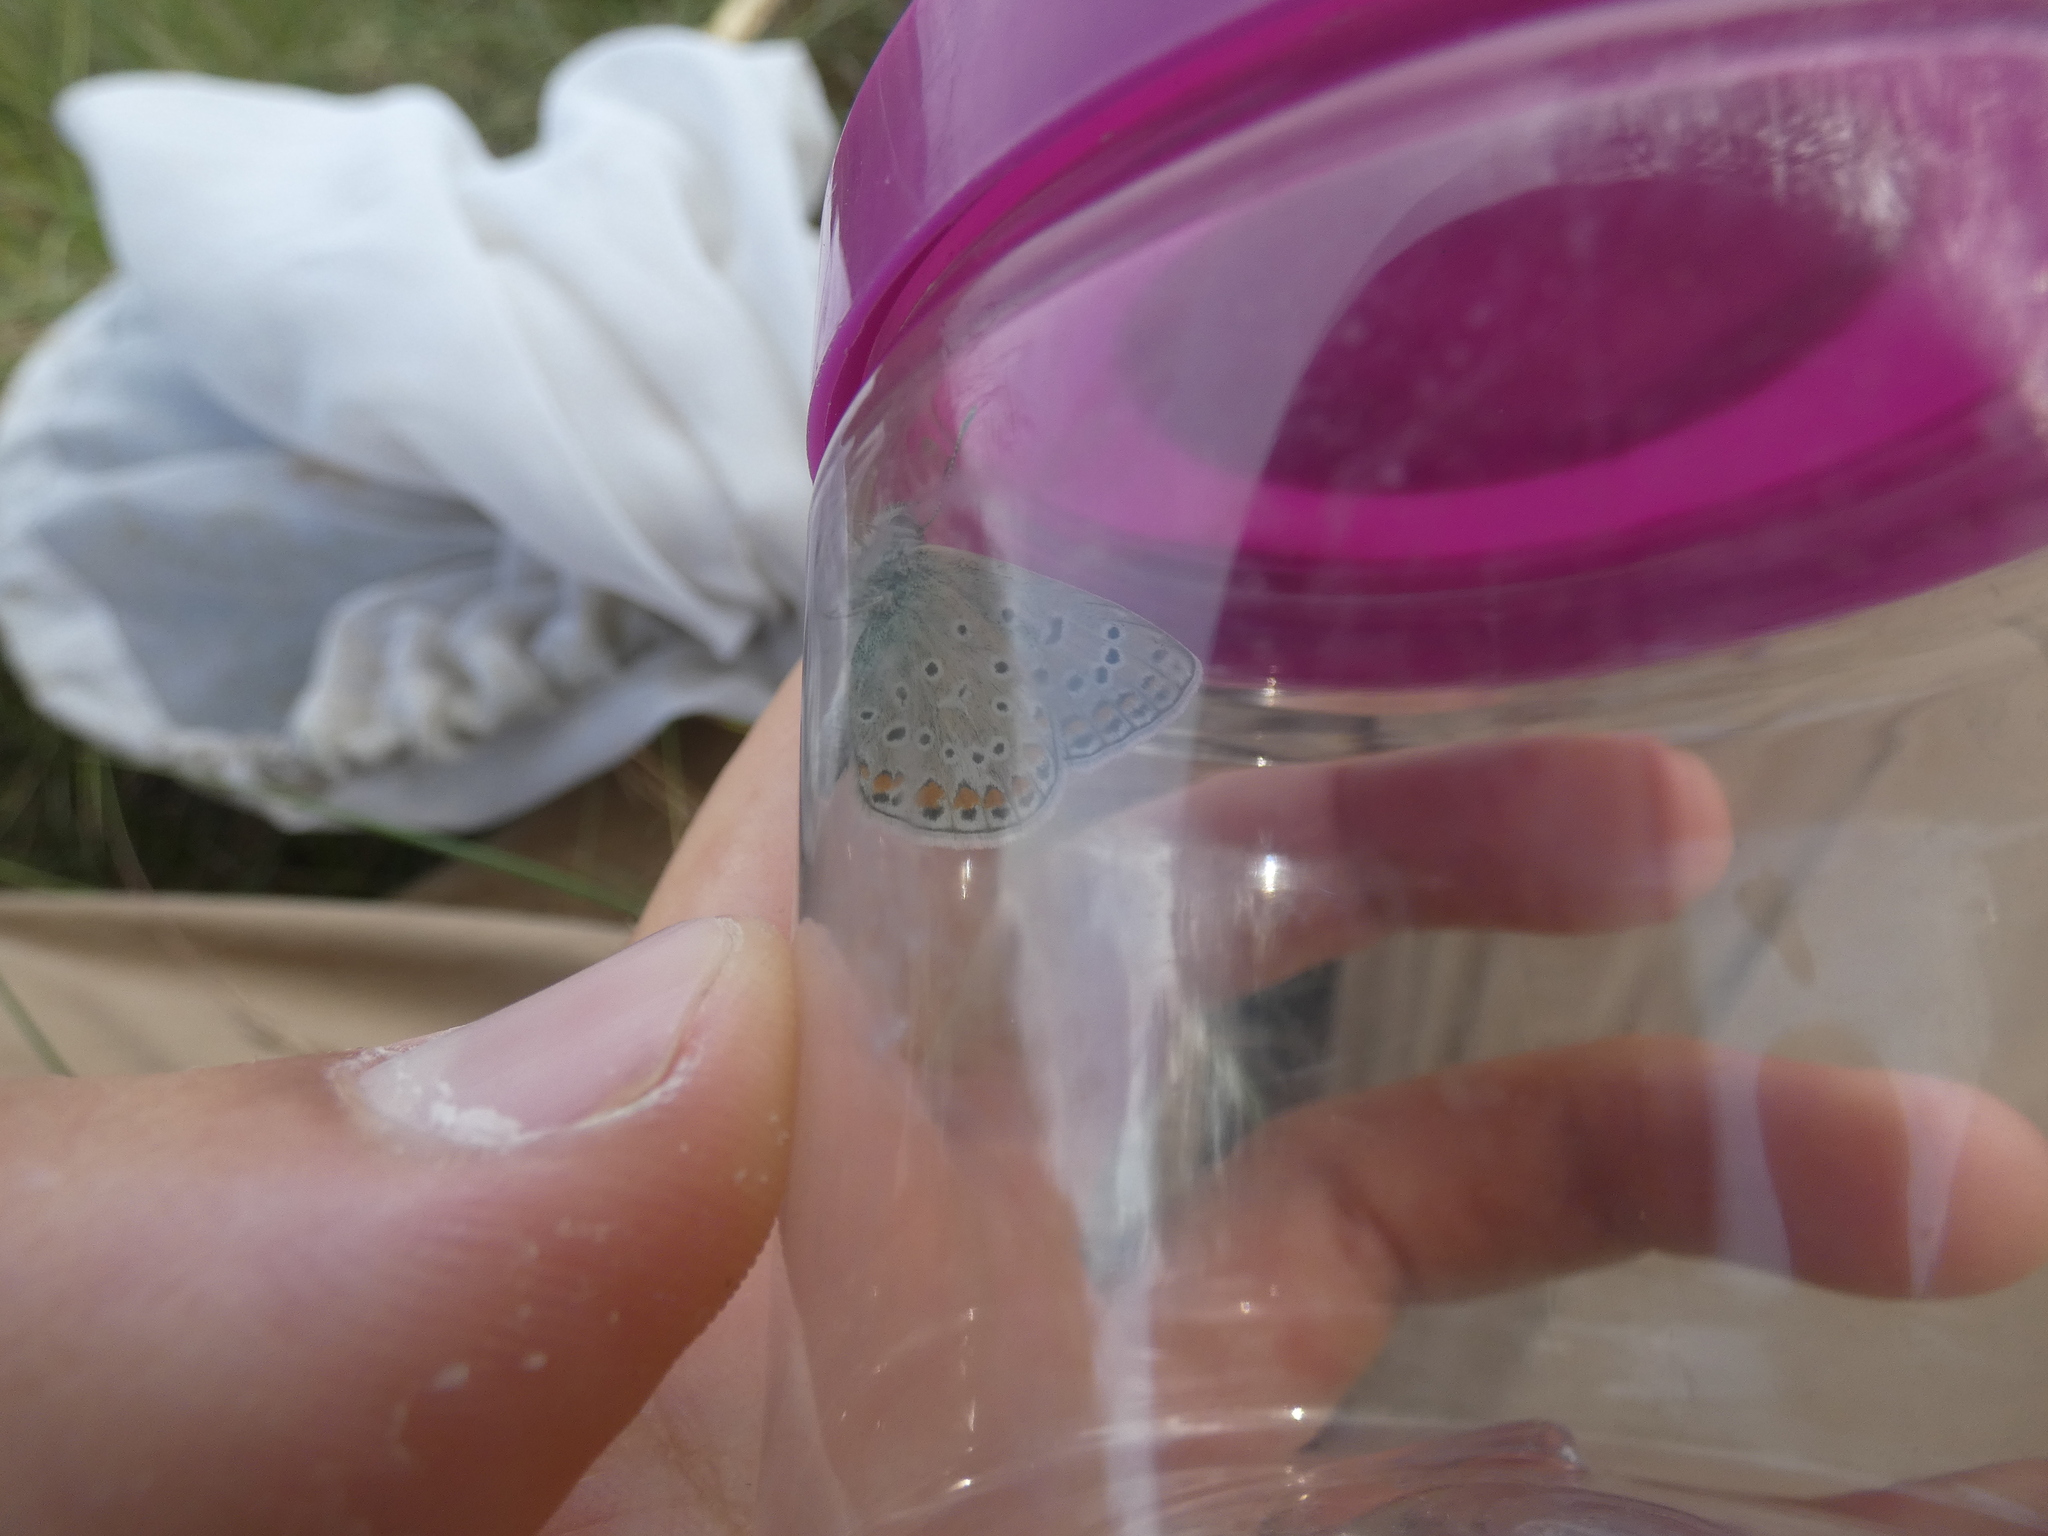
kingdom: Animalia
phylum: Arthropoda
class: Insecta
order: Lepidoptera
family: Lycaenidae
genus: Polyommatus
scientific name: Polyommatus icarus
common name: Common blue
